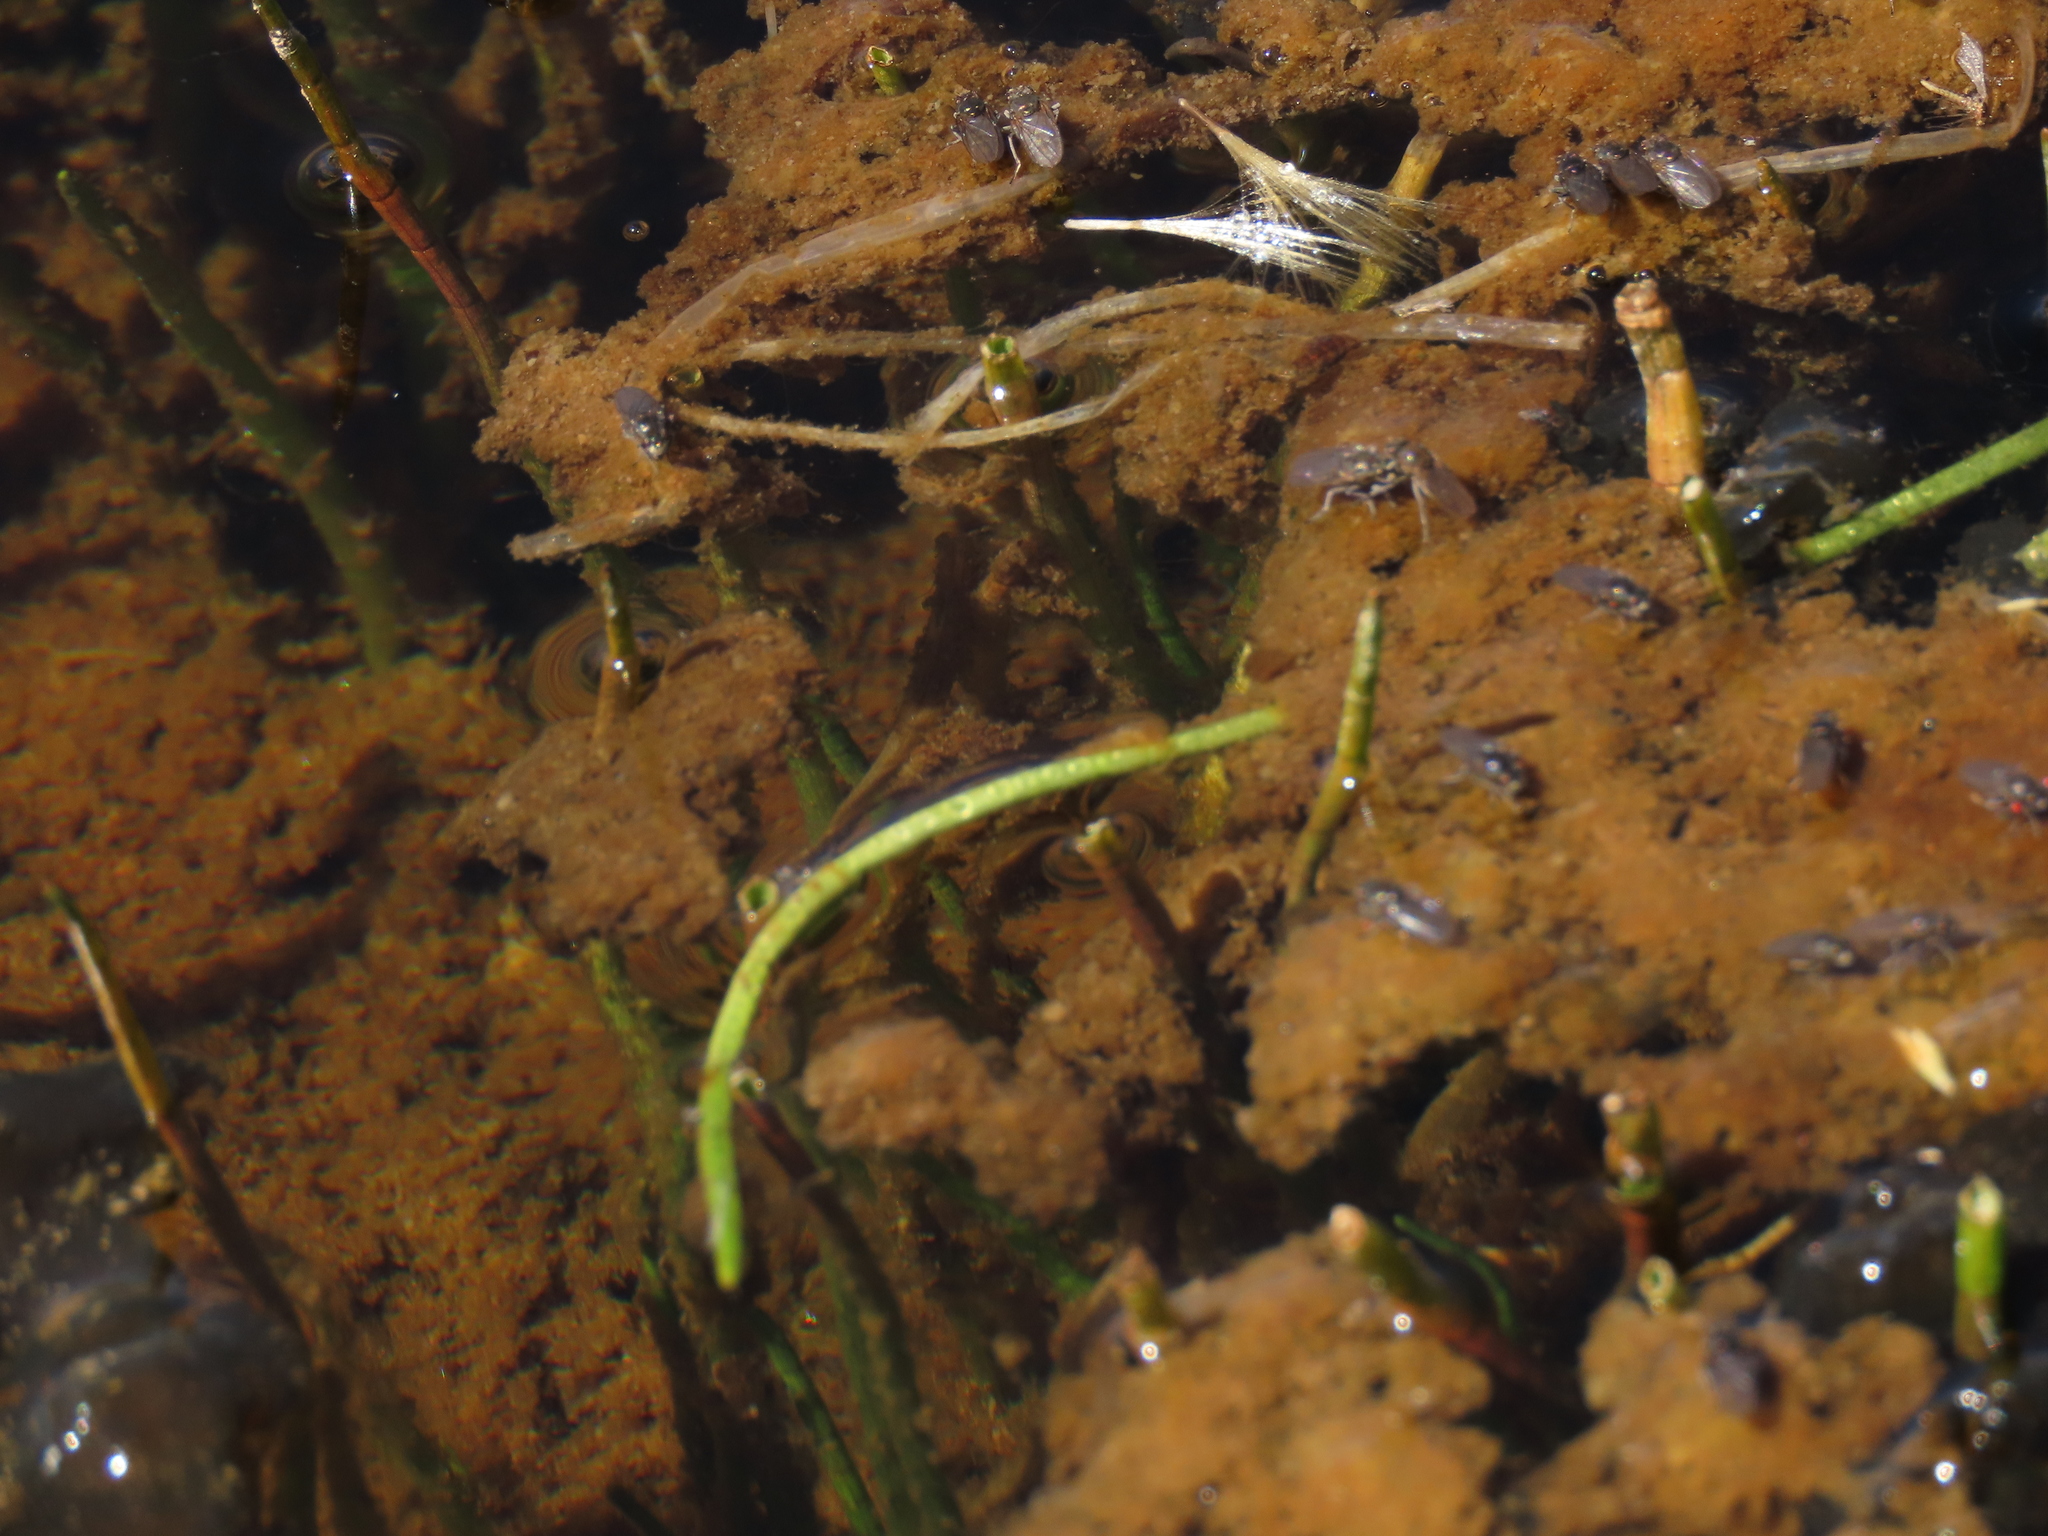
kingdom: Plantae
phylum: Tracheophyta
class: Magnoliopsida
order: Apiales
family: Apiaceae
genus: Lilaeopsis
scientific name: Lilaeopsis occidentalis
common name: Western grasswort
